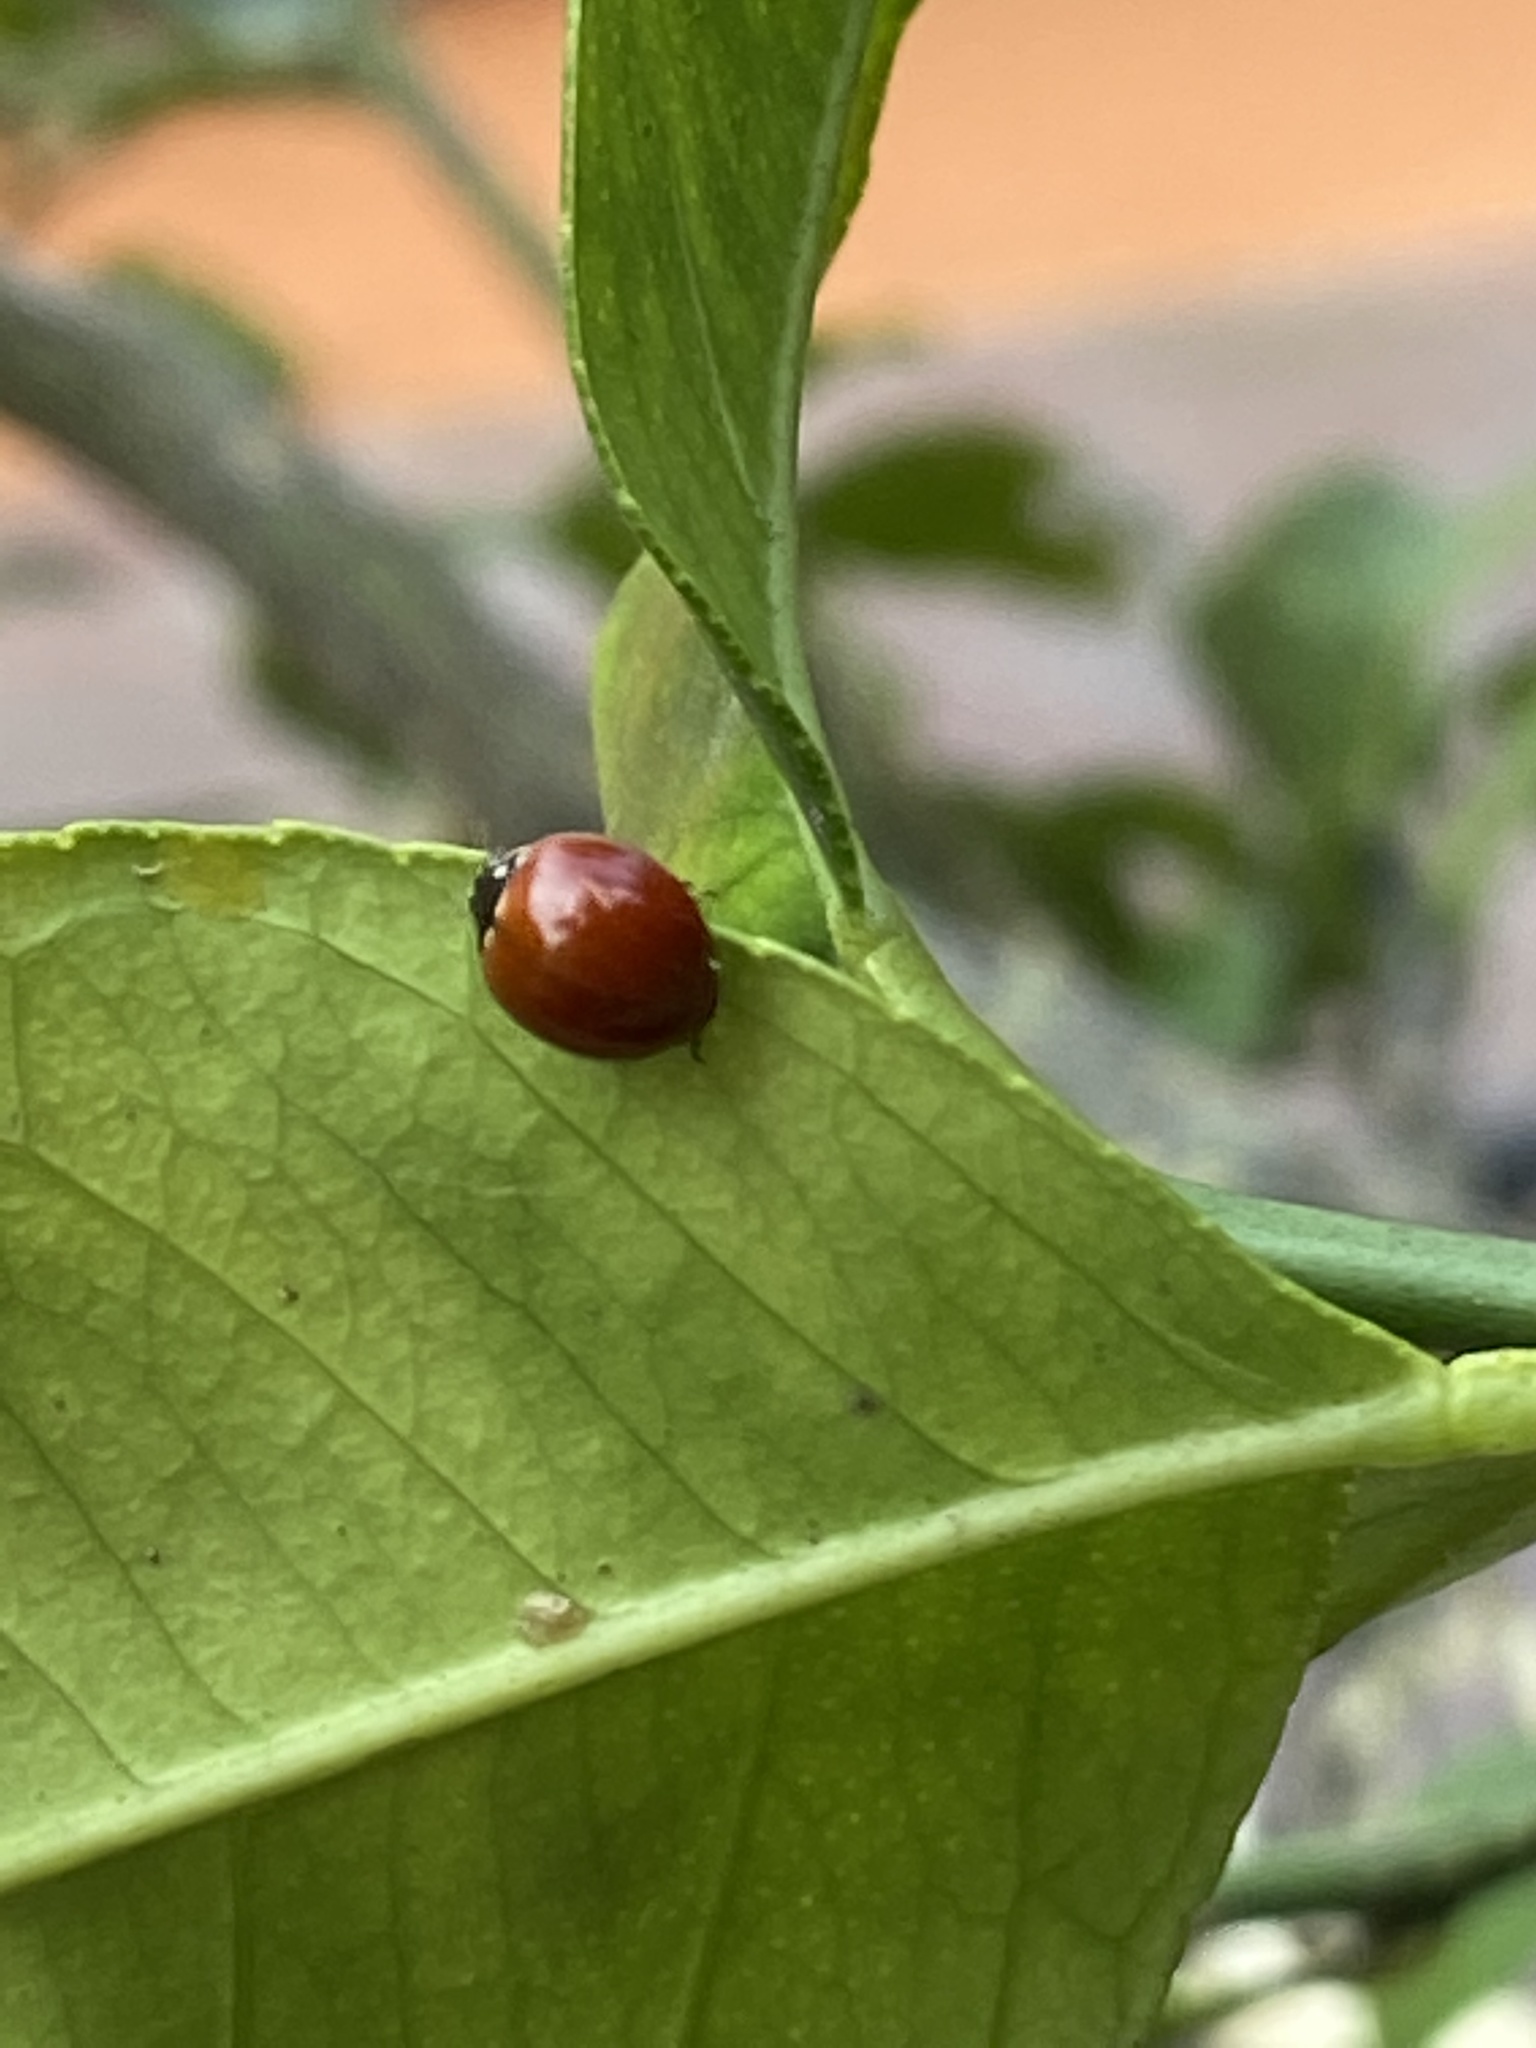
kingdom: Animalia
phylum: Arthropoda
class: Insecta
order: Coleoptera
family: Coccinellidae
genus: Cycloneda
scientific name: Cycloneda sanguinea
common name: Ladybird beetle
